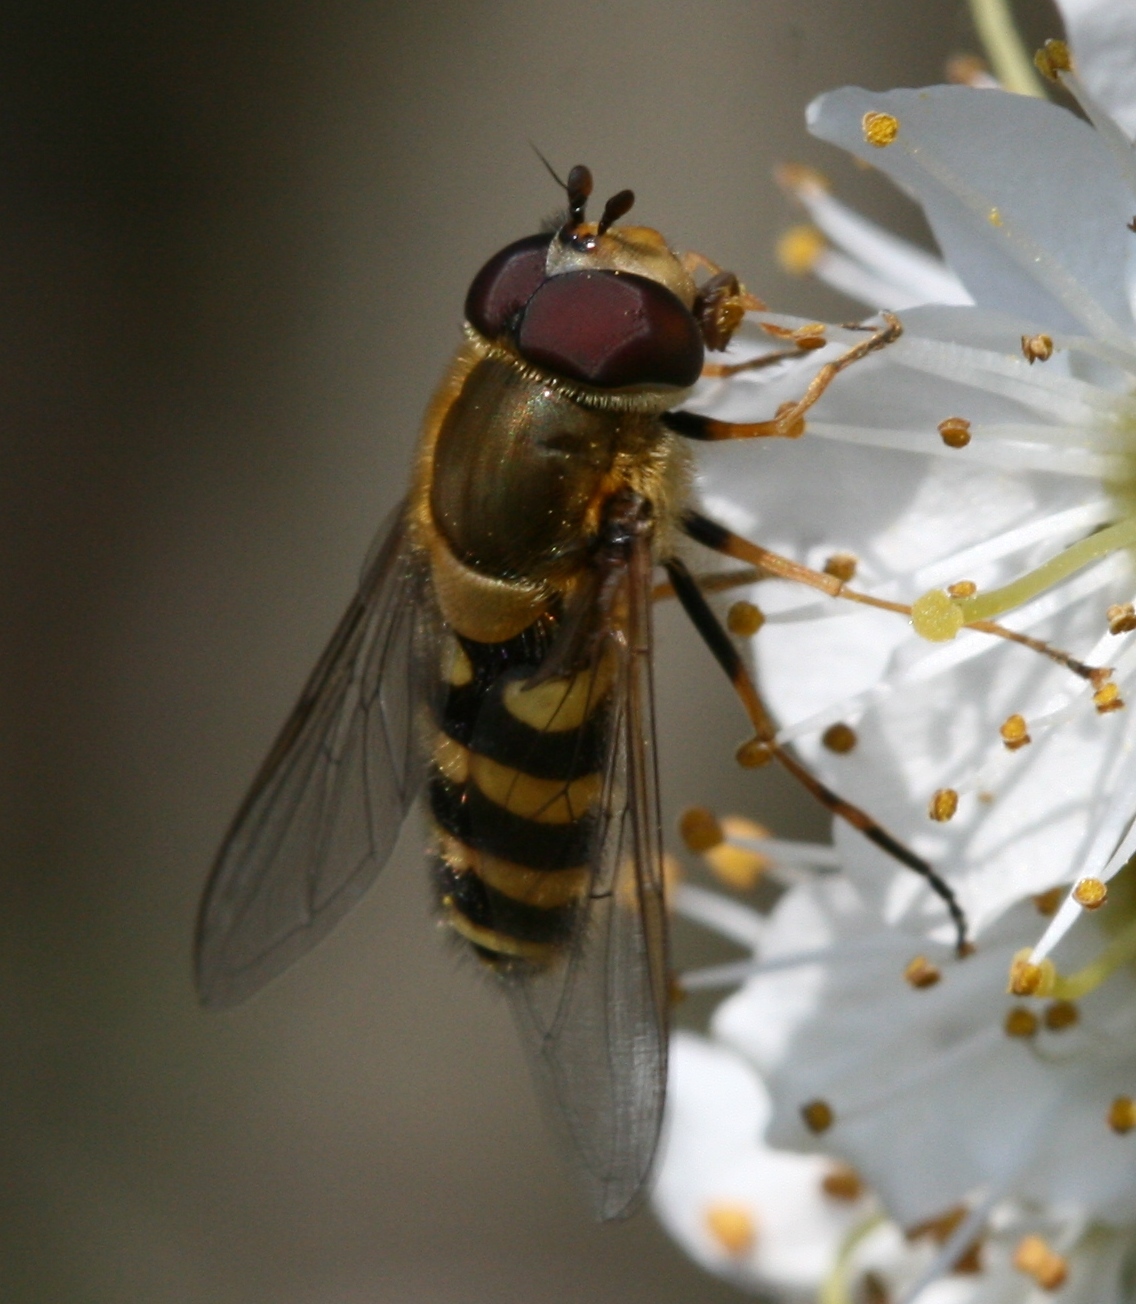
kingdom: Animalia
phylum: Arthropoda
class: Insecta
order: Diptera
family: Syrphidae
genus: Syrphus
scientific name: Syrphus
